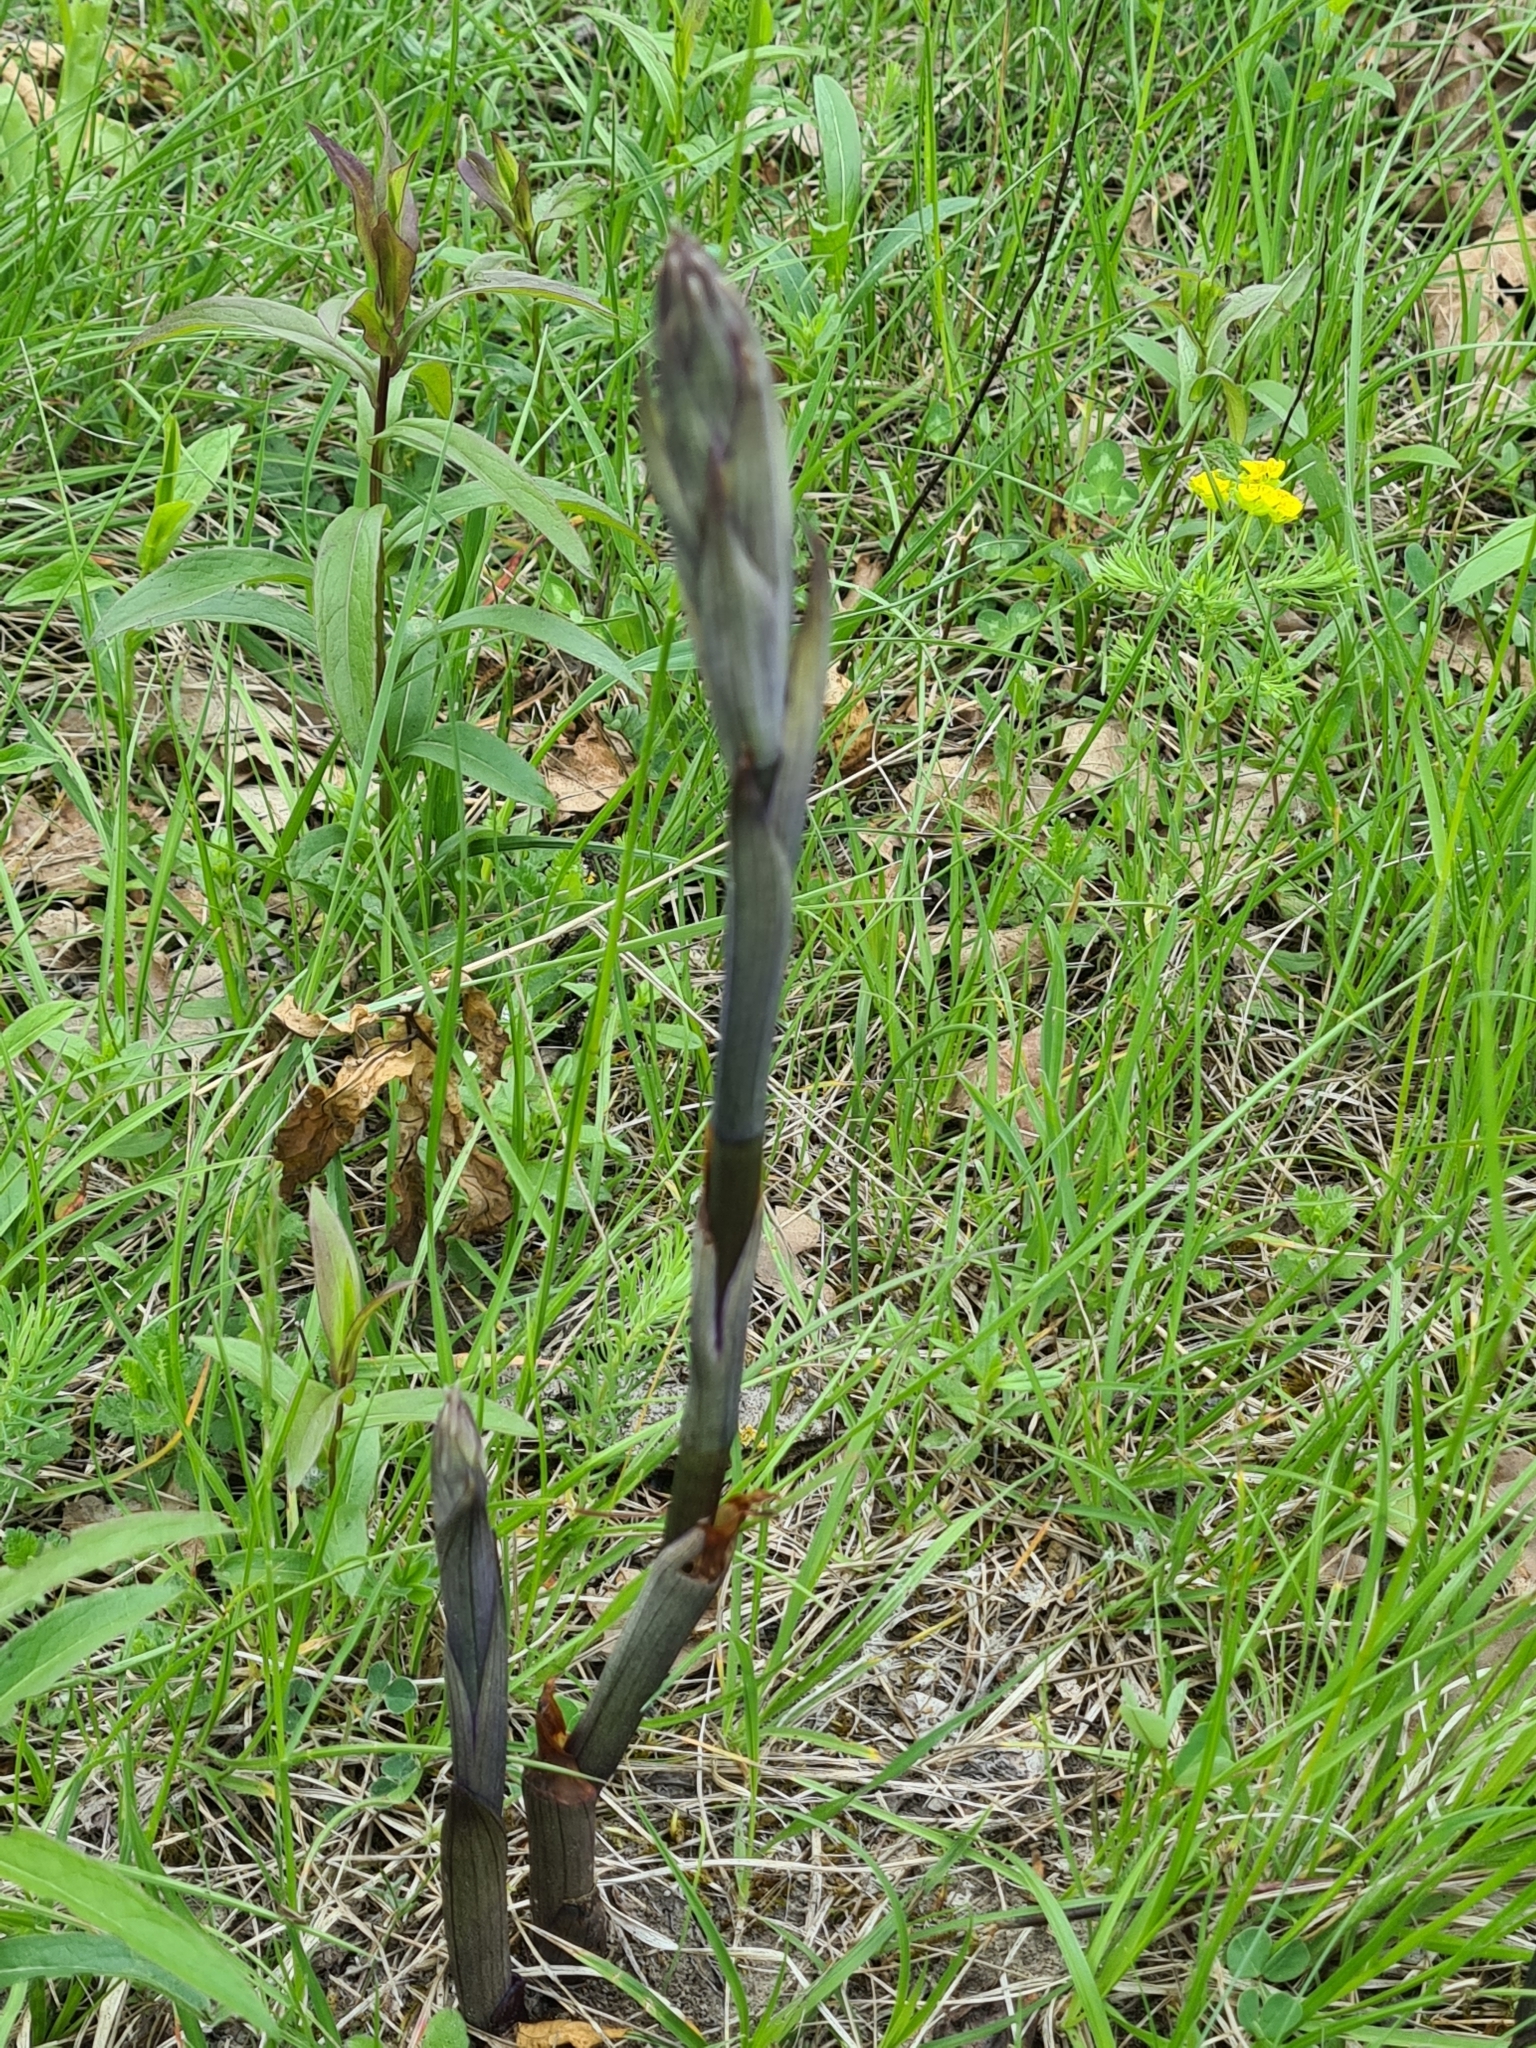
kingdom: Plantae
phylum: Tracheophyta
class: Liliopsida
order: Asparagales
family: Orchidaceae
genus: Limodorum
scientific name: Limodorum abortivum
